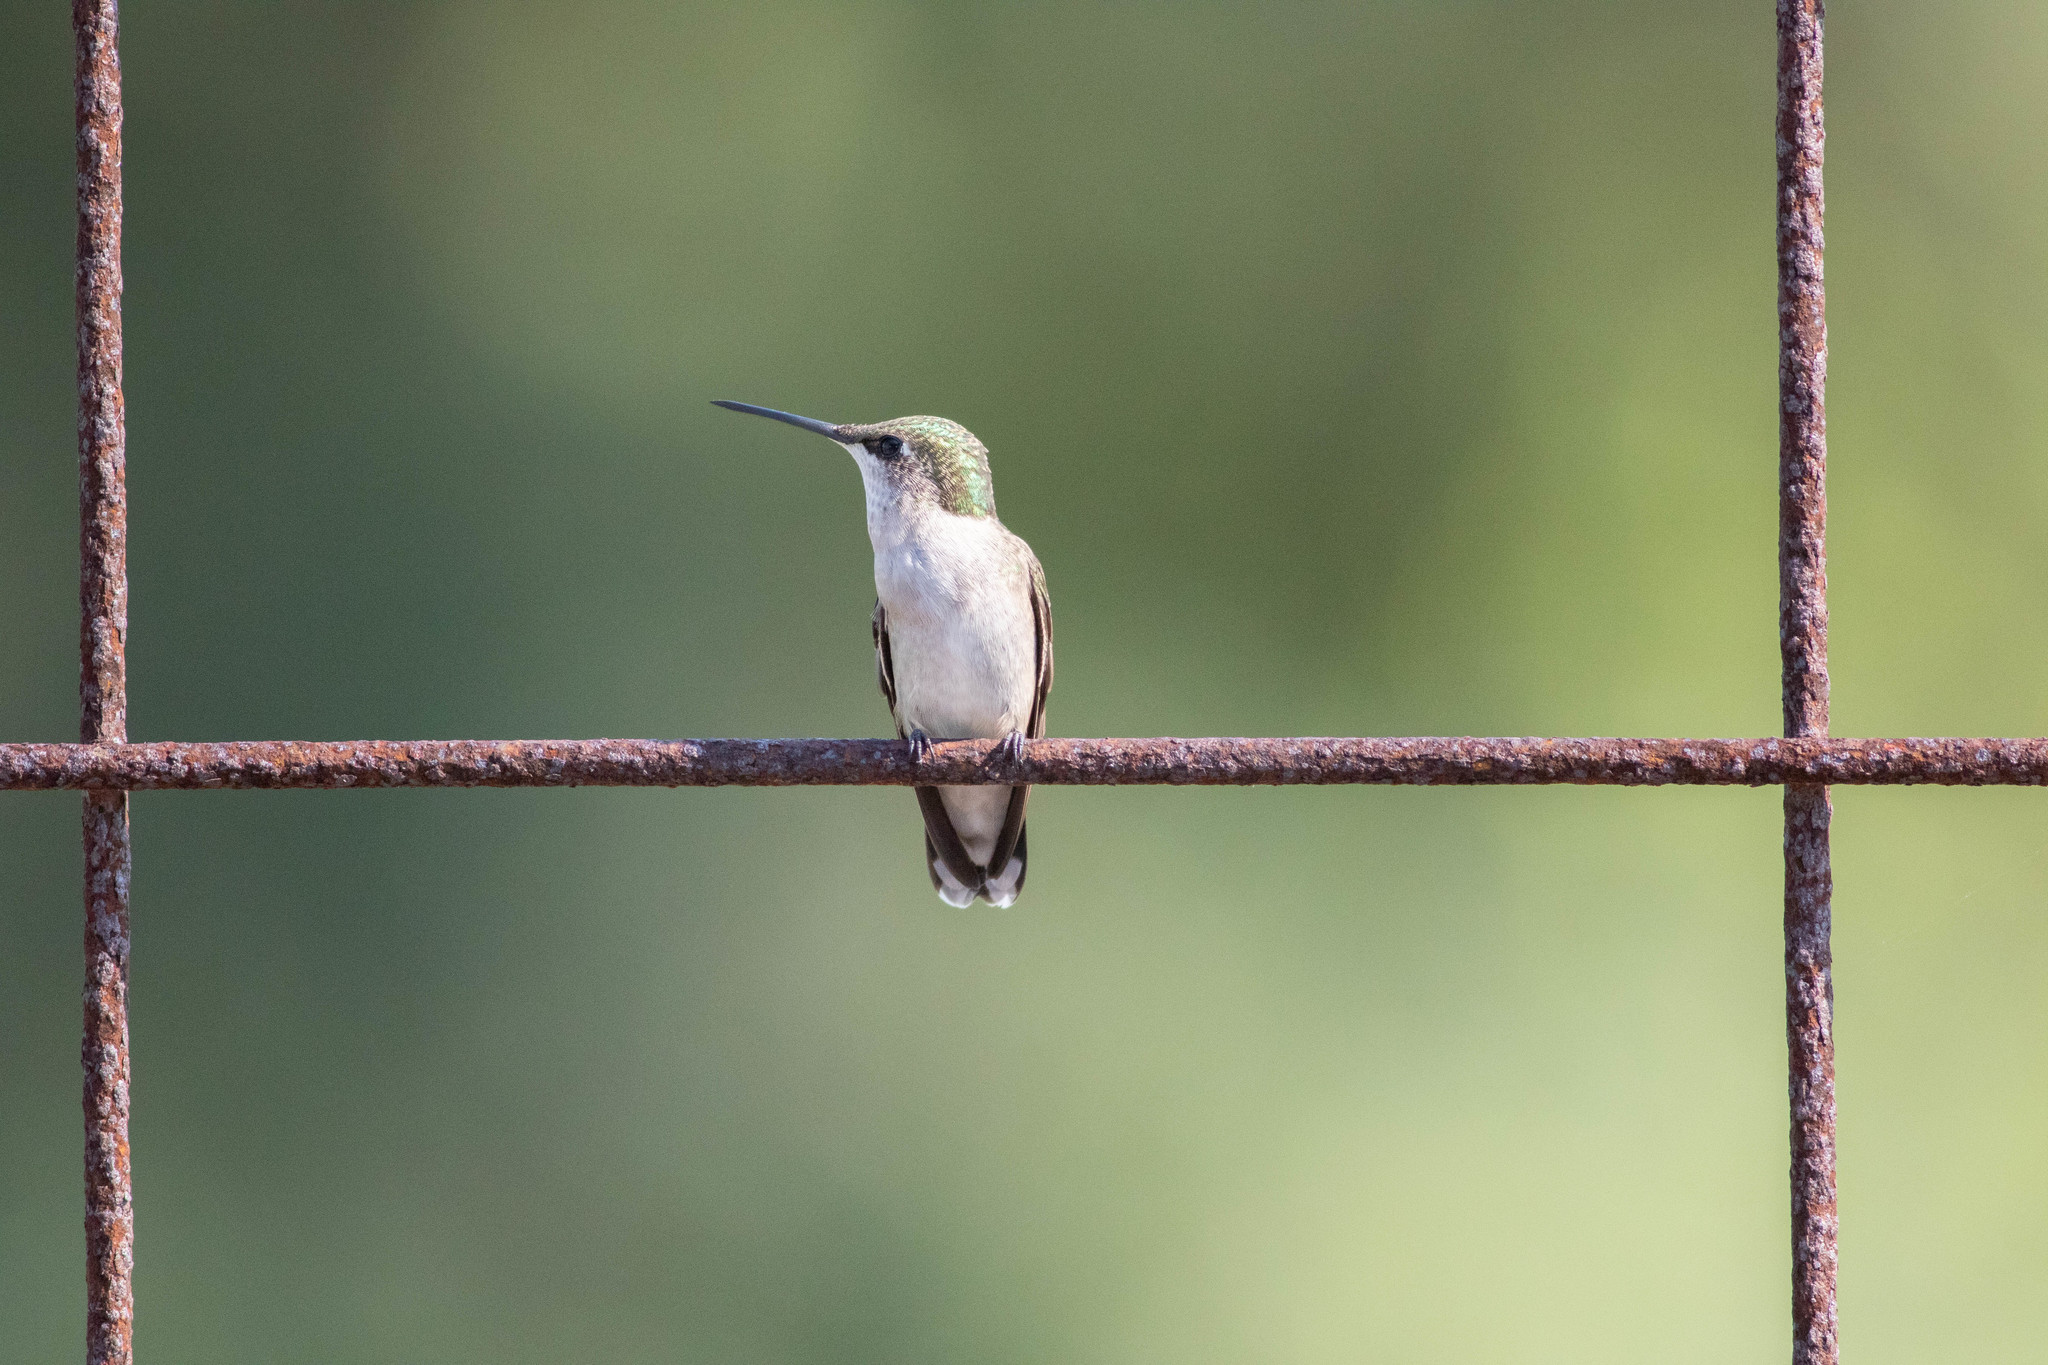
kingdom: Animalia
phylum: Chordata
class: Aves
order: Apodiformes
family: Trochilidae
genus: Archilochus
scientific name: Archilochus colubris
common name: Ruby-throated hummingbird
